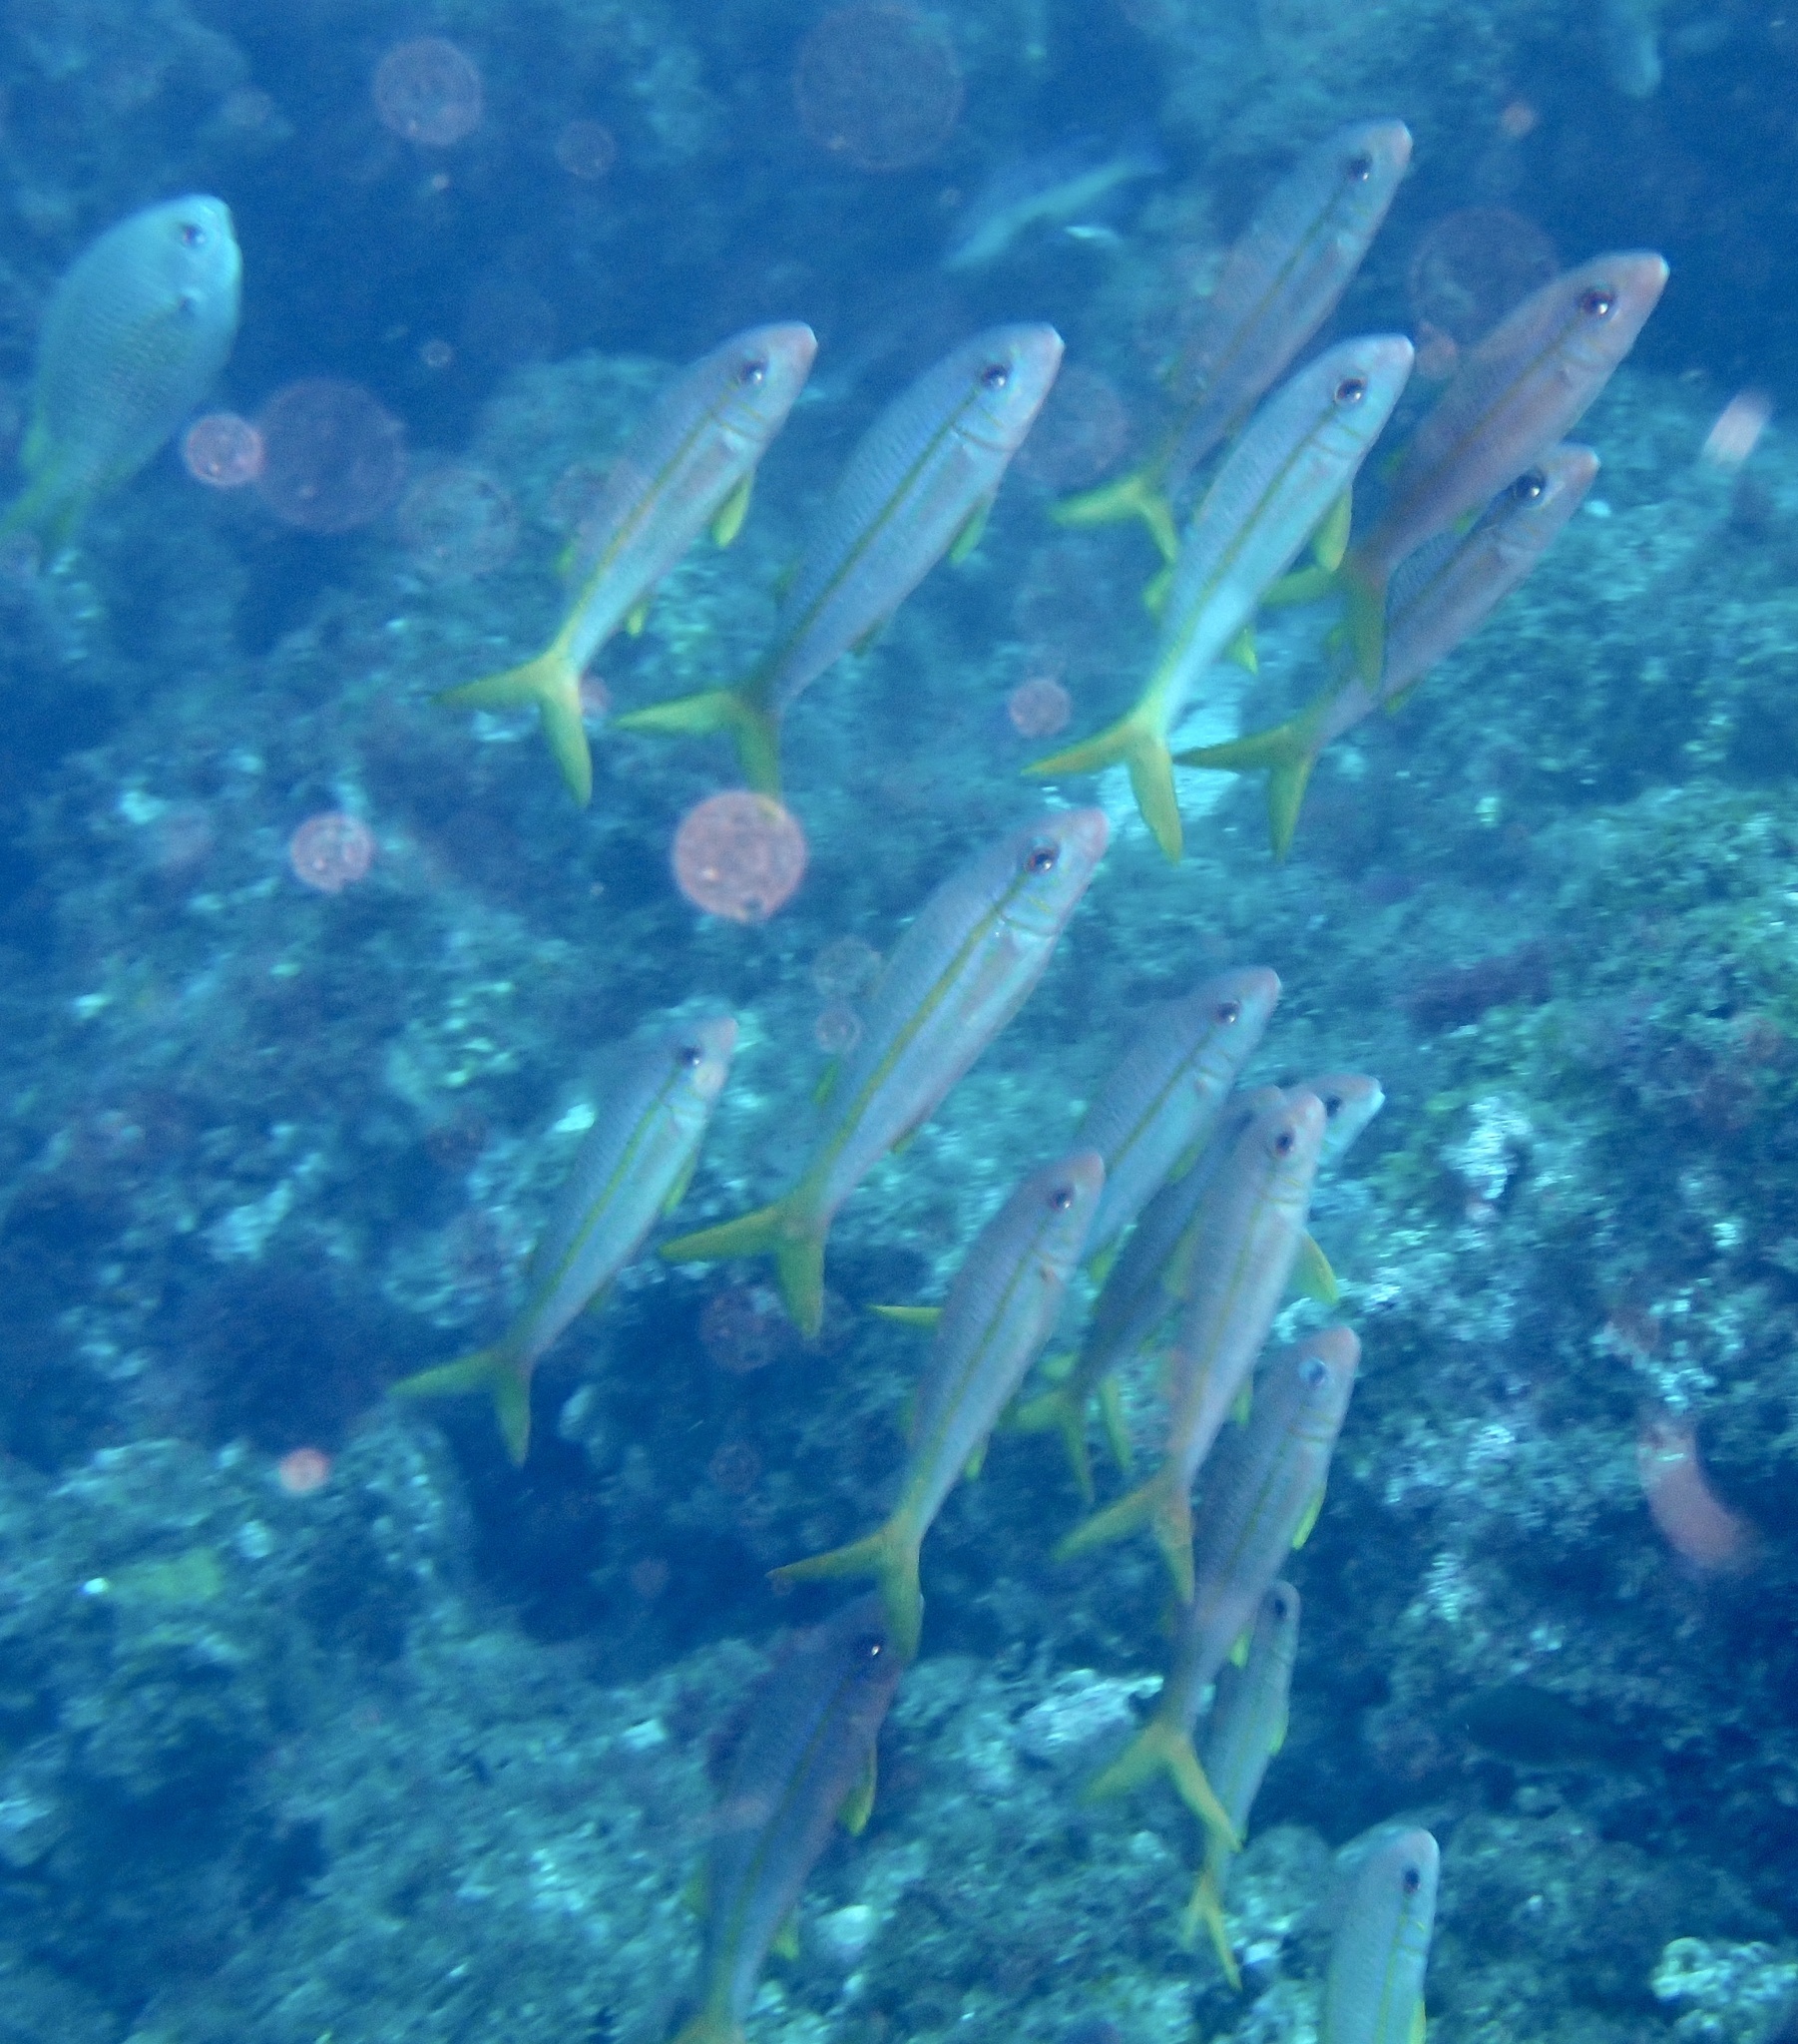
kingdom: Animalia
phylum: Chordata
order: Perciformes
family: Mullidae
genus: Mulloidichthys
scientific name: Mulloidichthys martinicus
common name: Yellow goatfish
